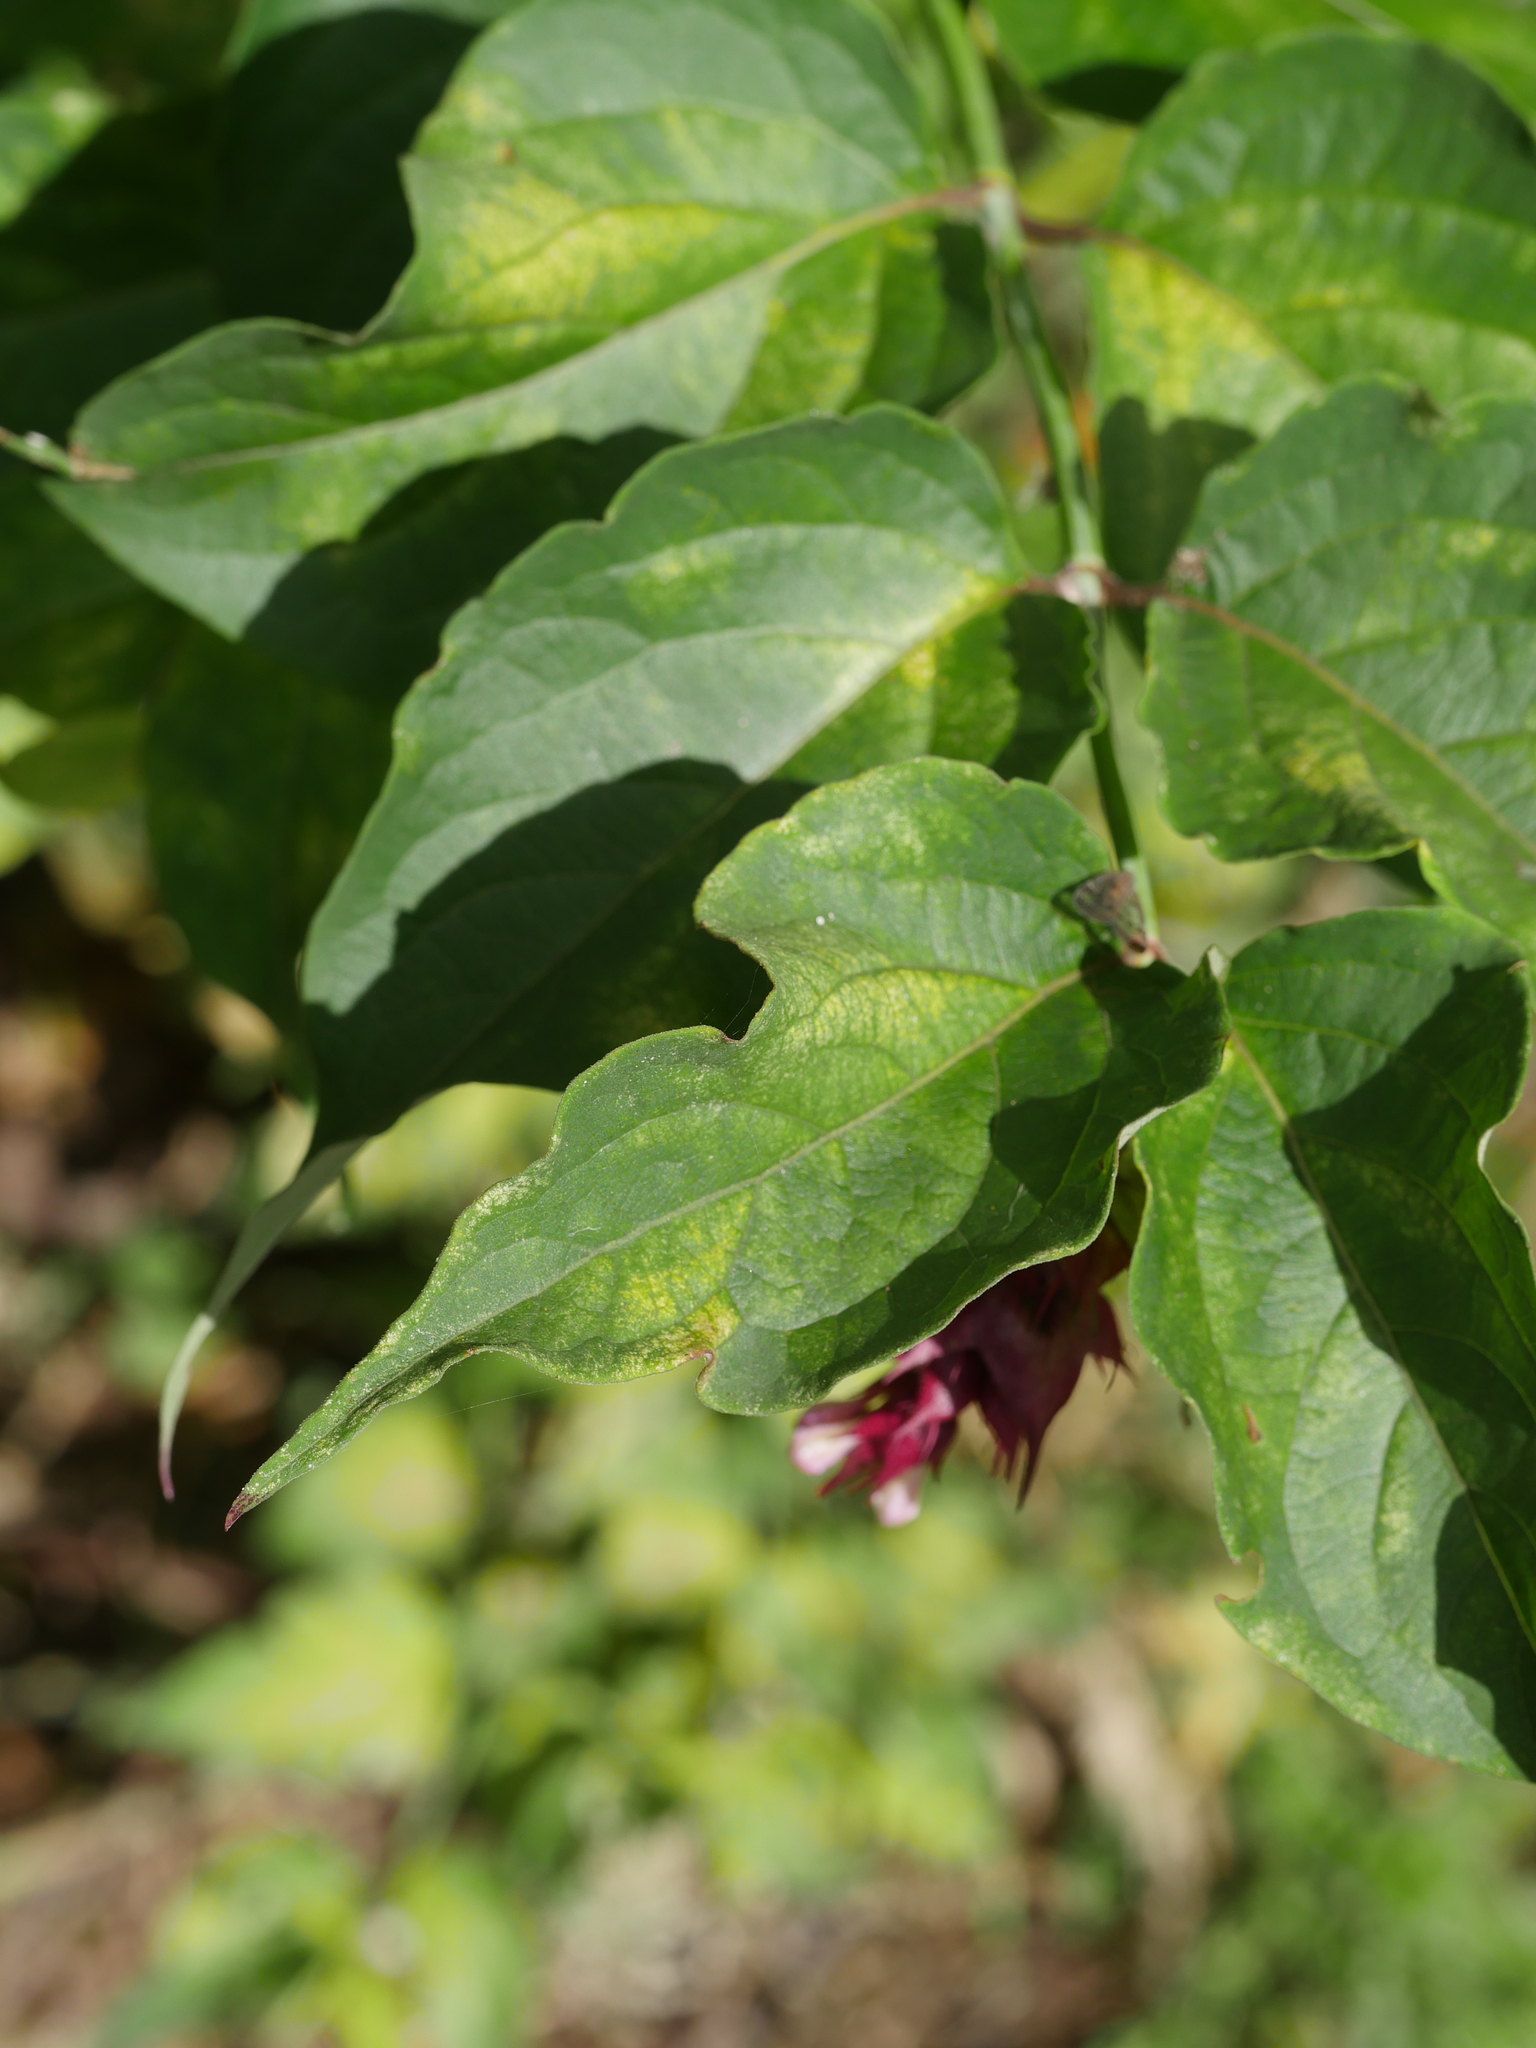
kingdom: Plantae
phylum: Tracheophyta
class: Magnoliopsida
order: Dipsacales
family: Caprifoliaceae
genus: Leycesteria
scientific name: Leycesteria formosa
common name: Himalayan honeysuckle
